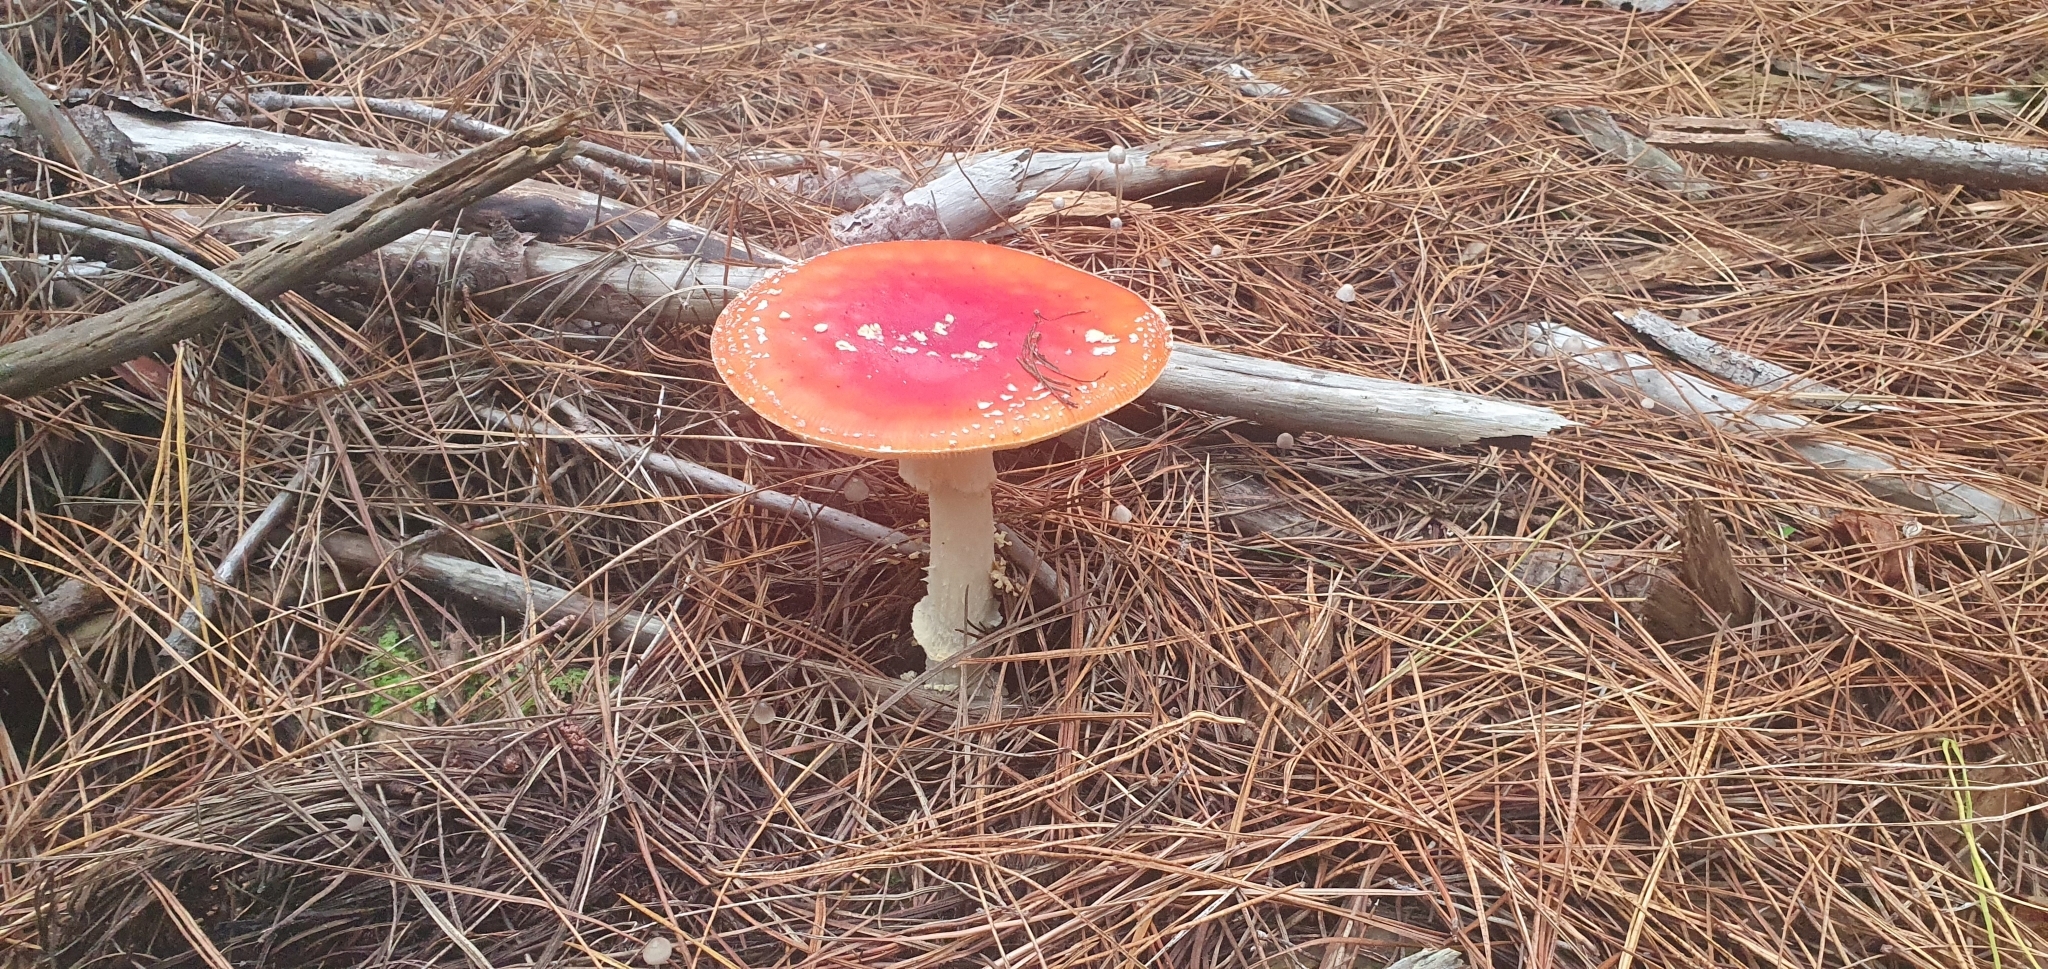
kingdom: Fungi
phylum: Basidiomycota
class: Agaricomycetes
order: Agaricales
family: Amanitaceae
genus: Amanita
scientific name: Amanita muscaria
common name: Fly agaric
